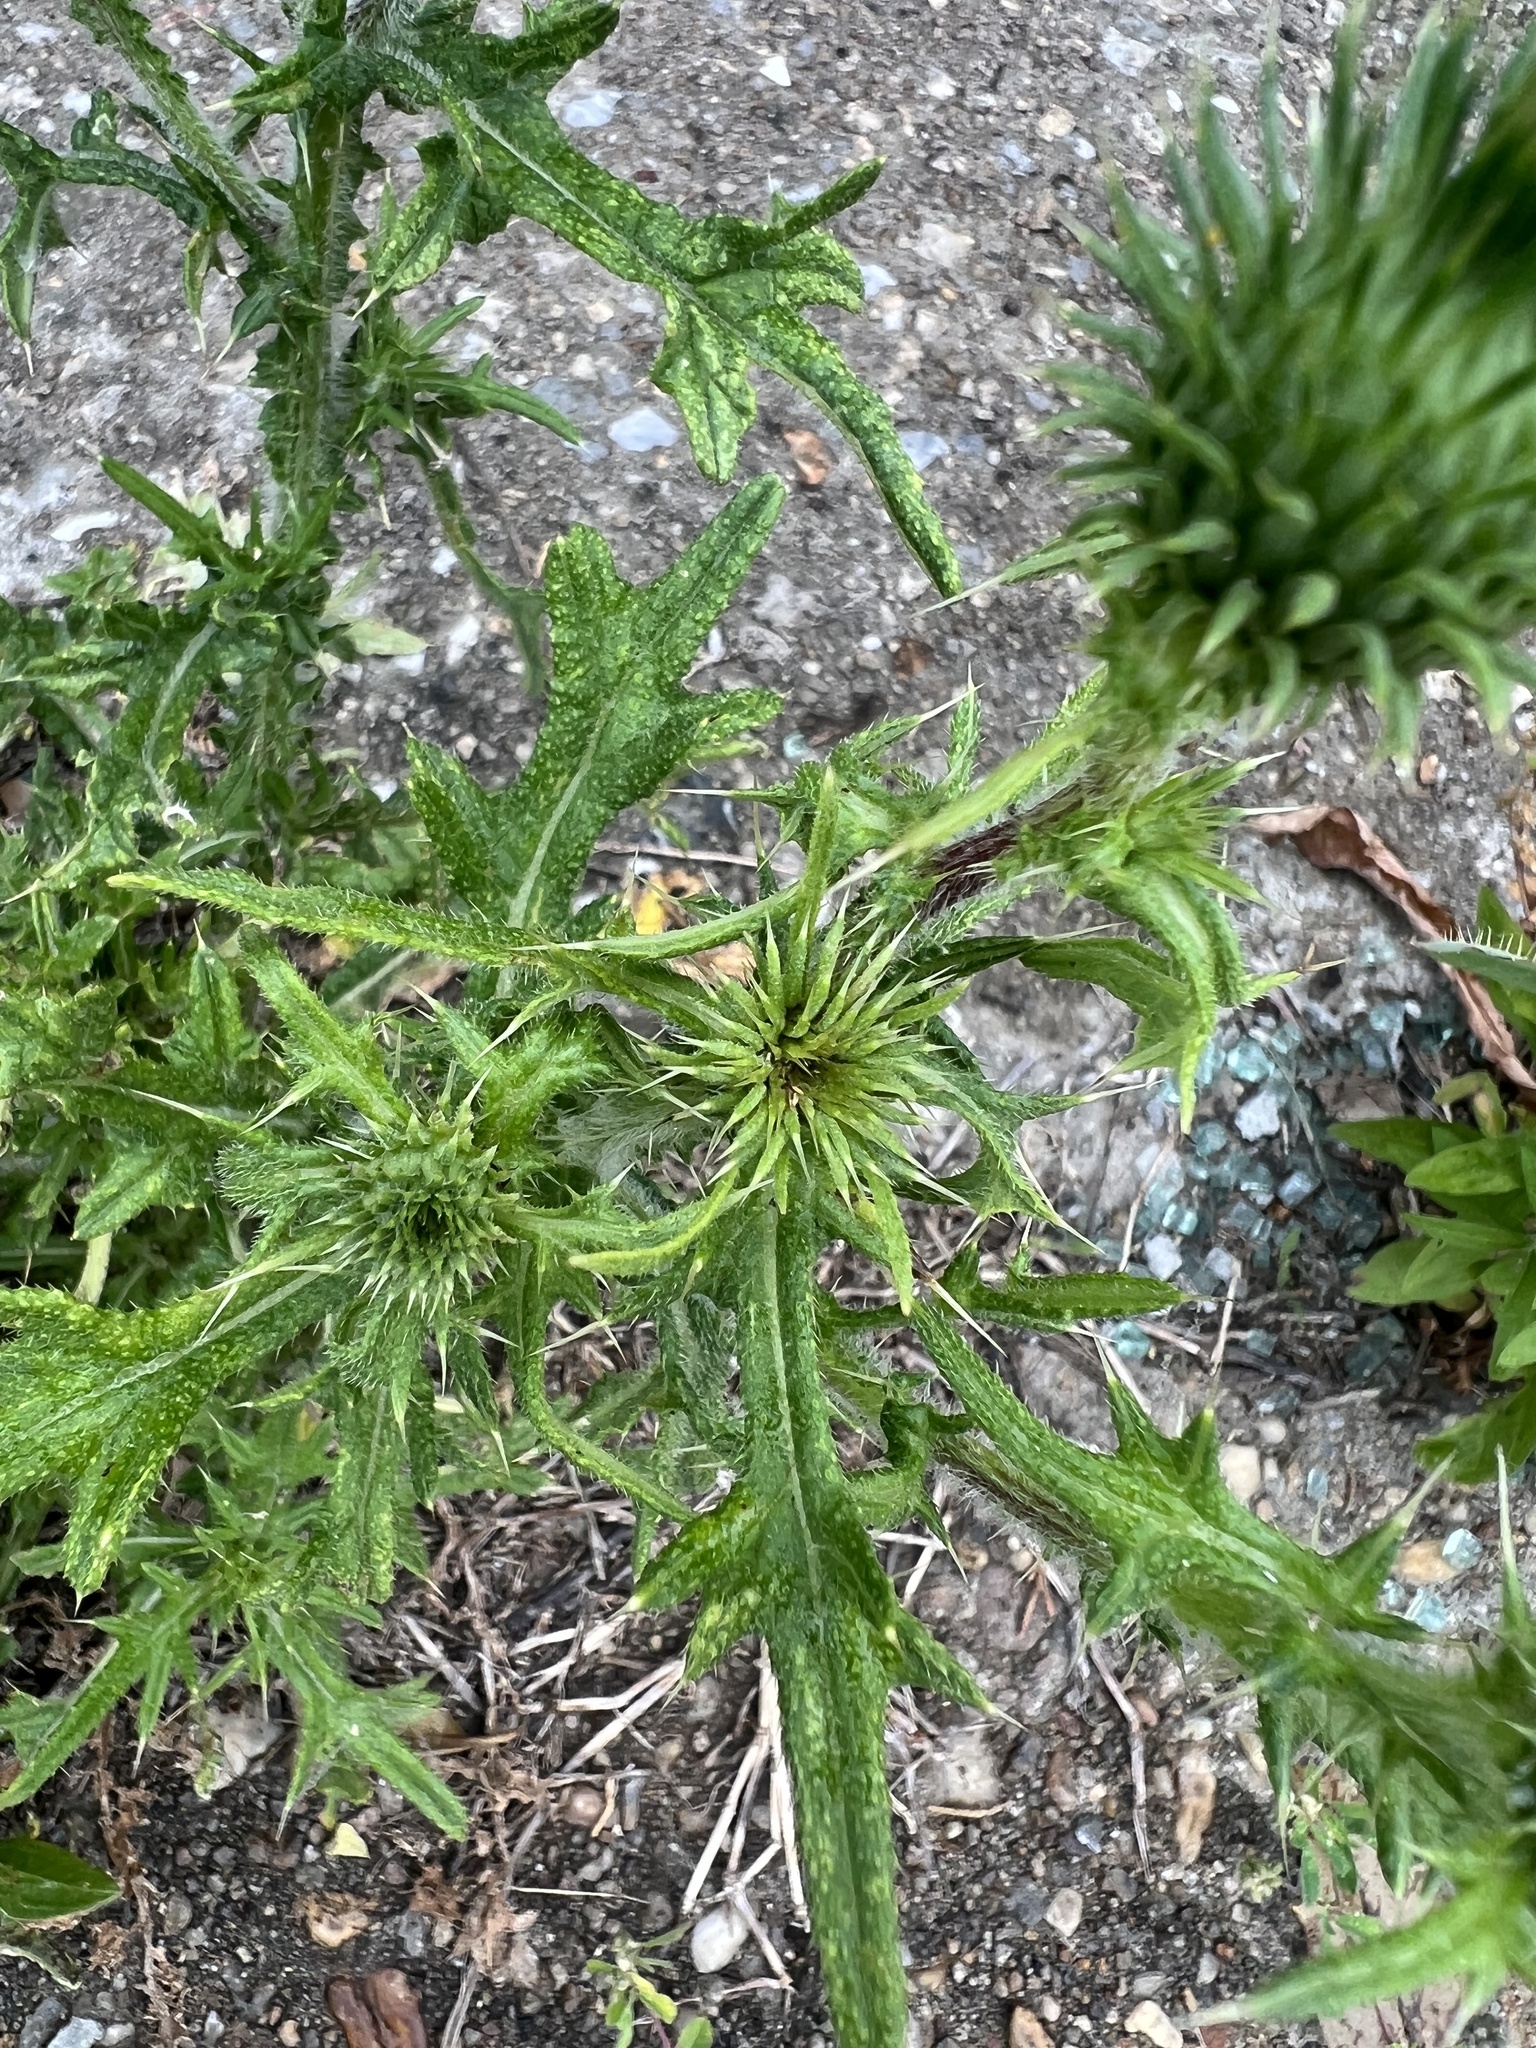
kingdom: Plantae
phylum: Tracheophyta
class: Magnoliopsida
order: Asterales
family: Asteraceae
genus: Cirsium
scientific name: Cirsium vulgare
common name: Bull thistle
